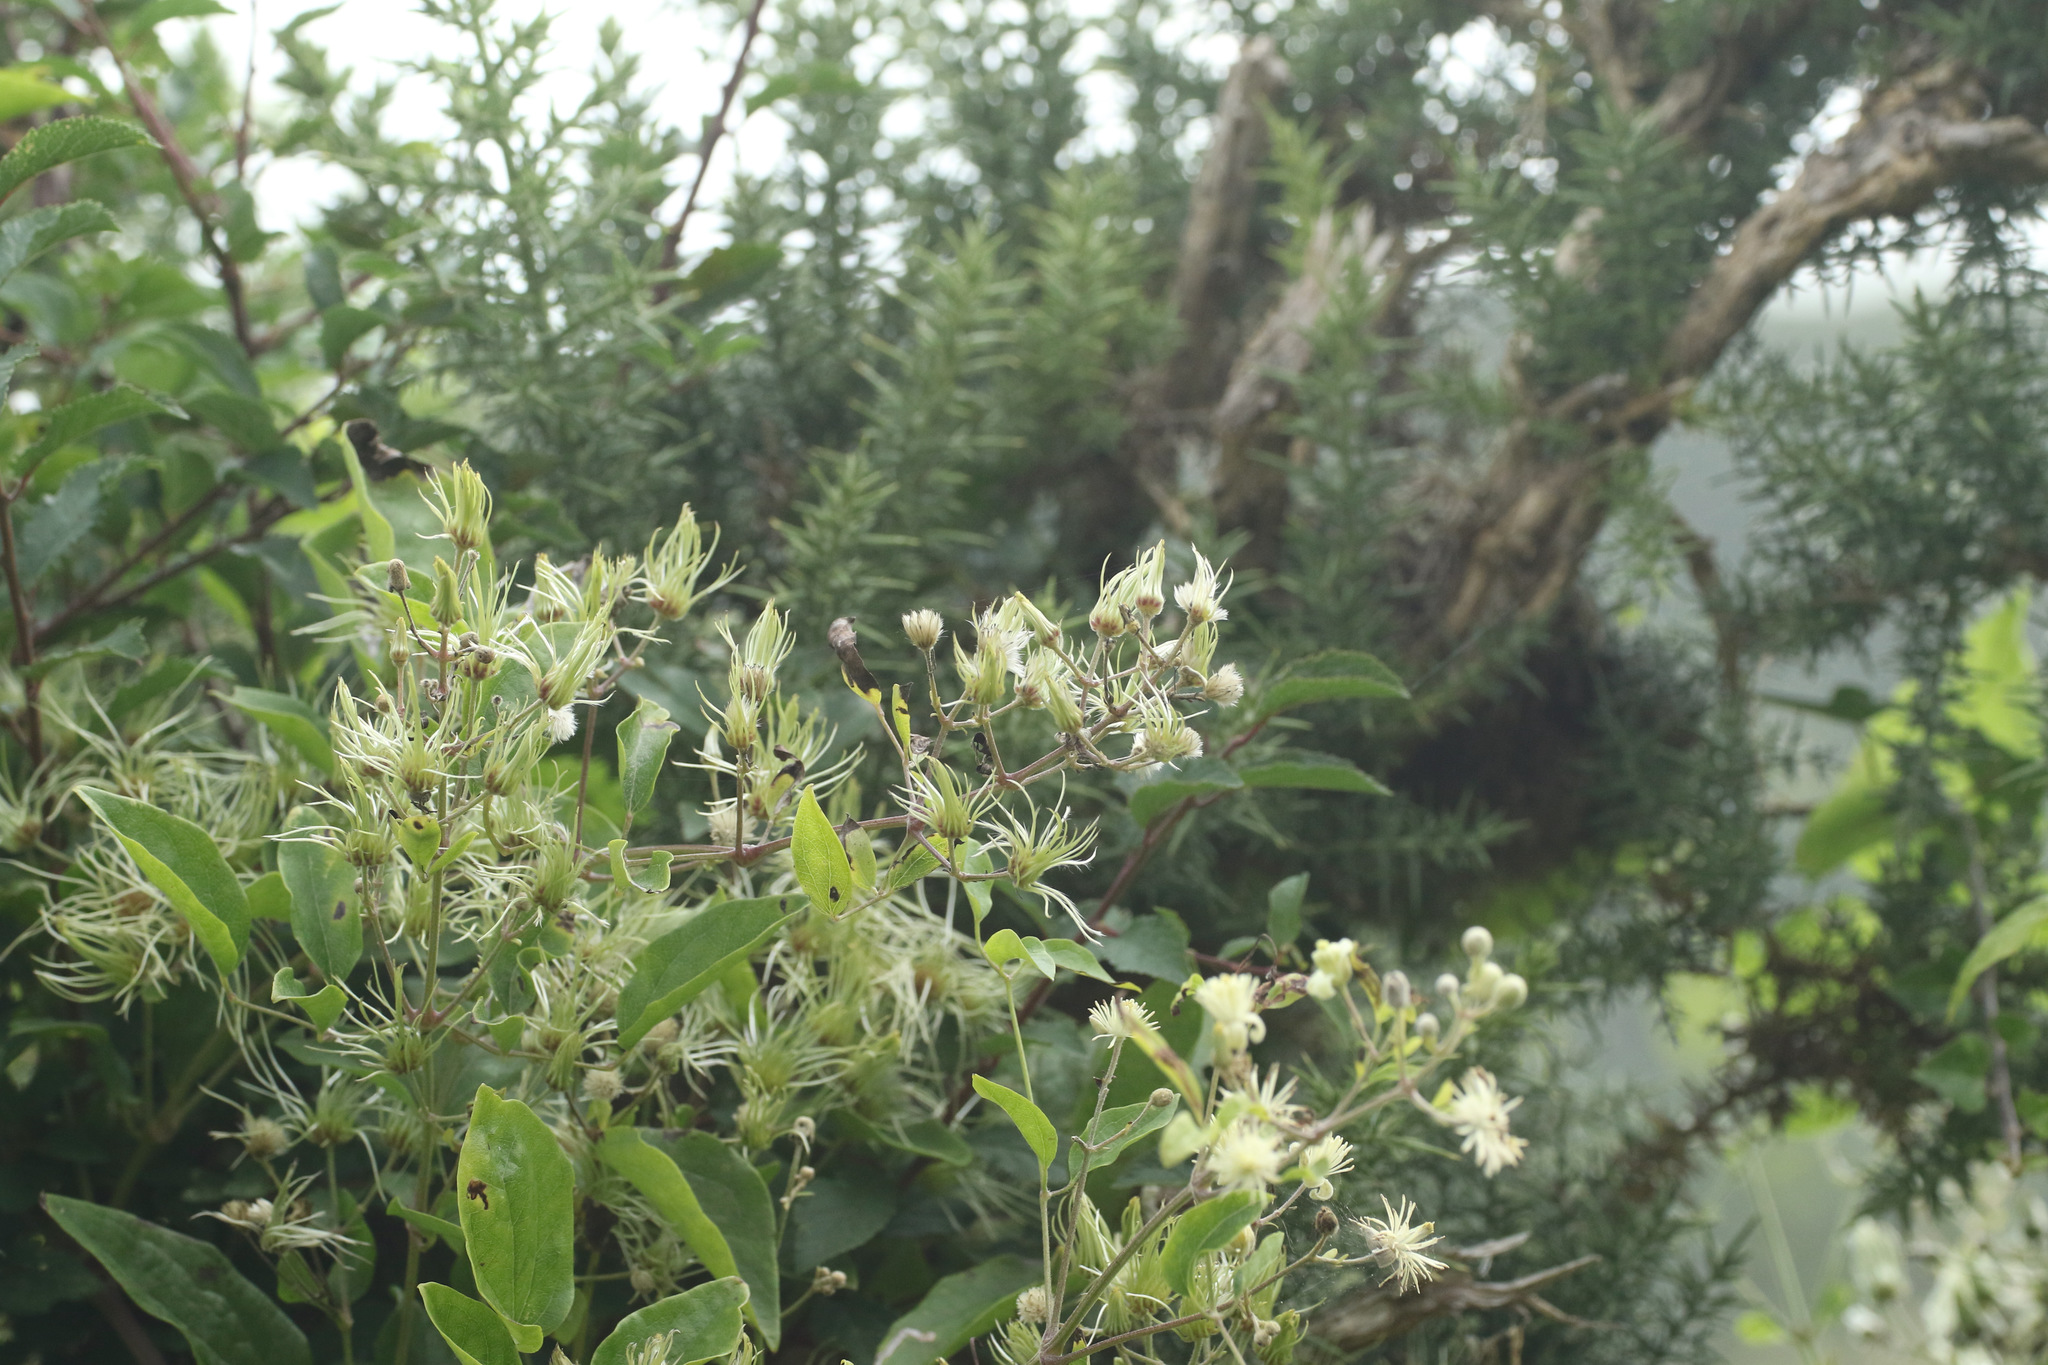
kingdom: Plantae
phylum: Tracheophyta
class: Magnoliopsida
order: Ranunculales
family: Ranunculaceae
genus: Clematis
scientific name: Clematis vitalba
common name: Evergreen clematis
